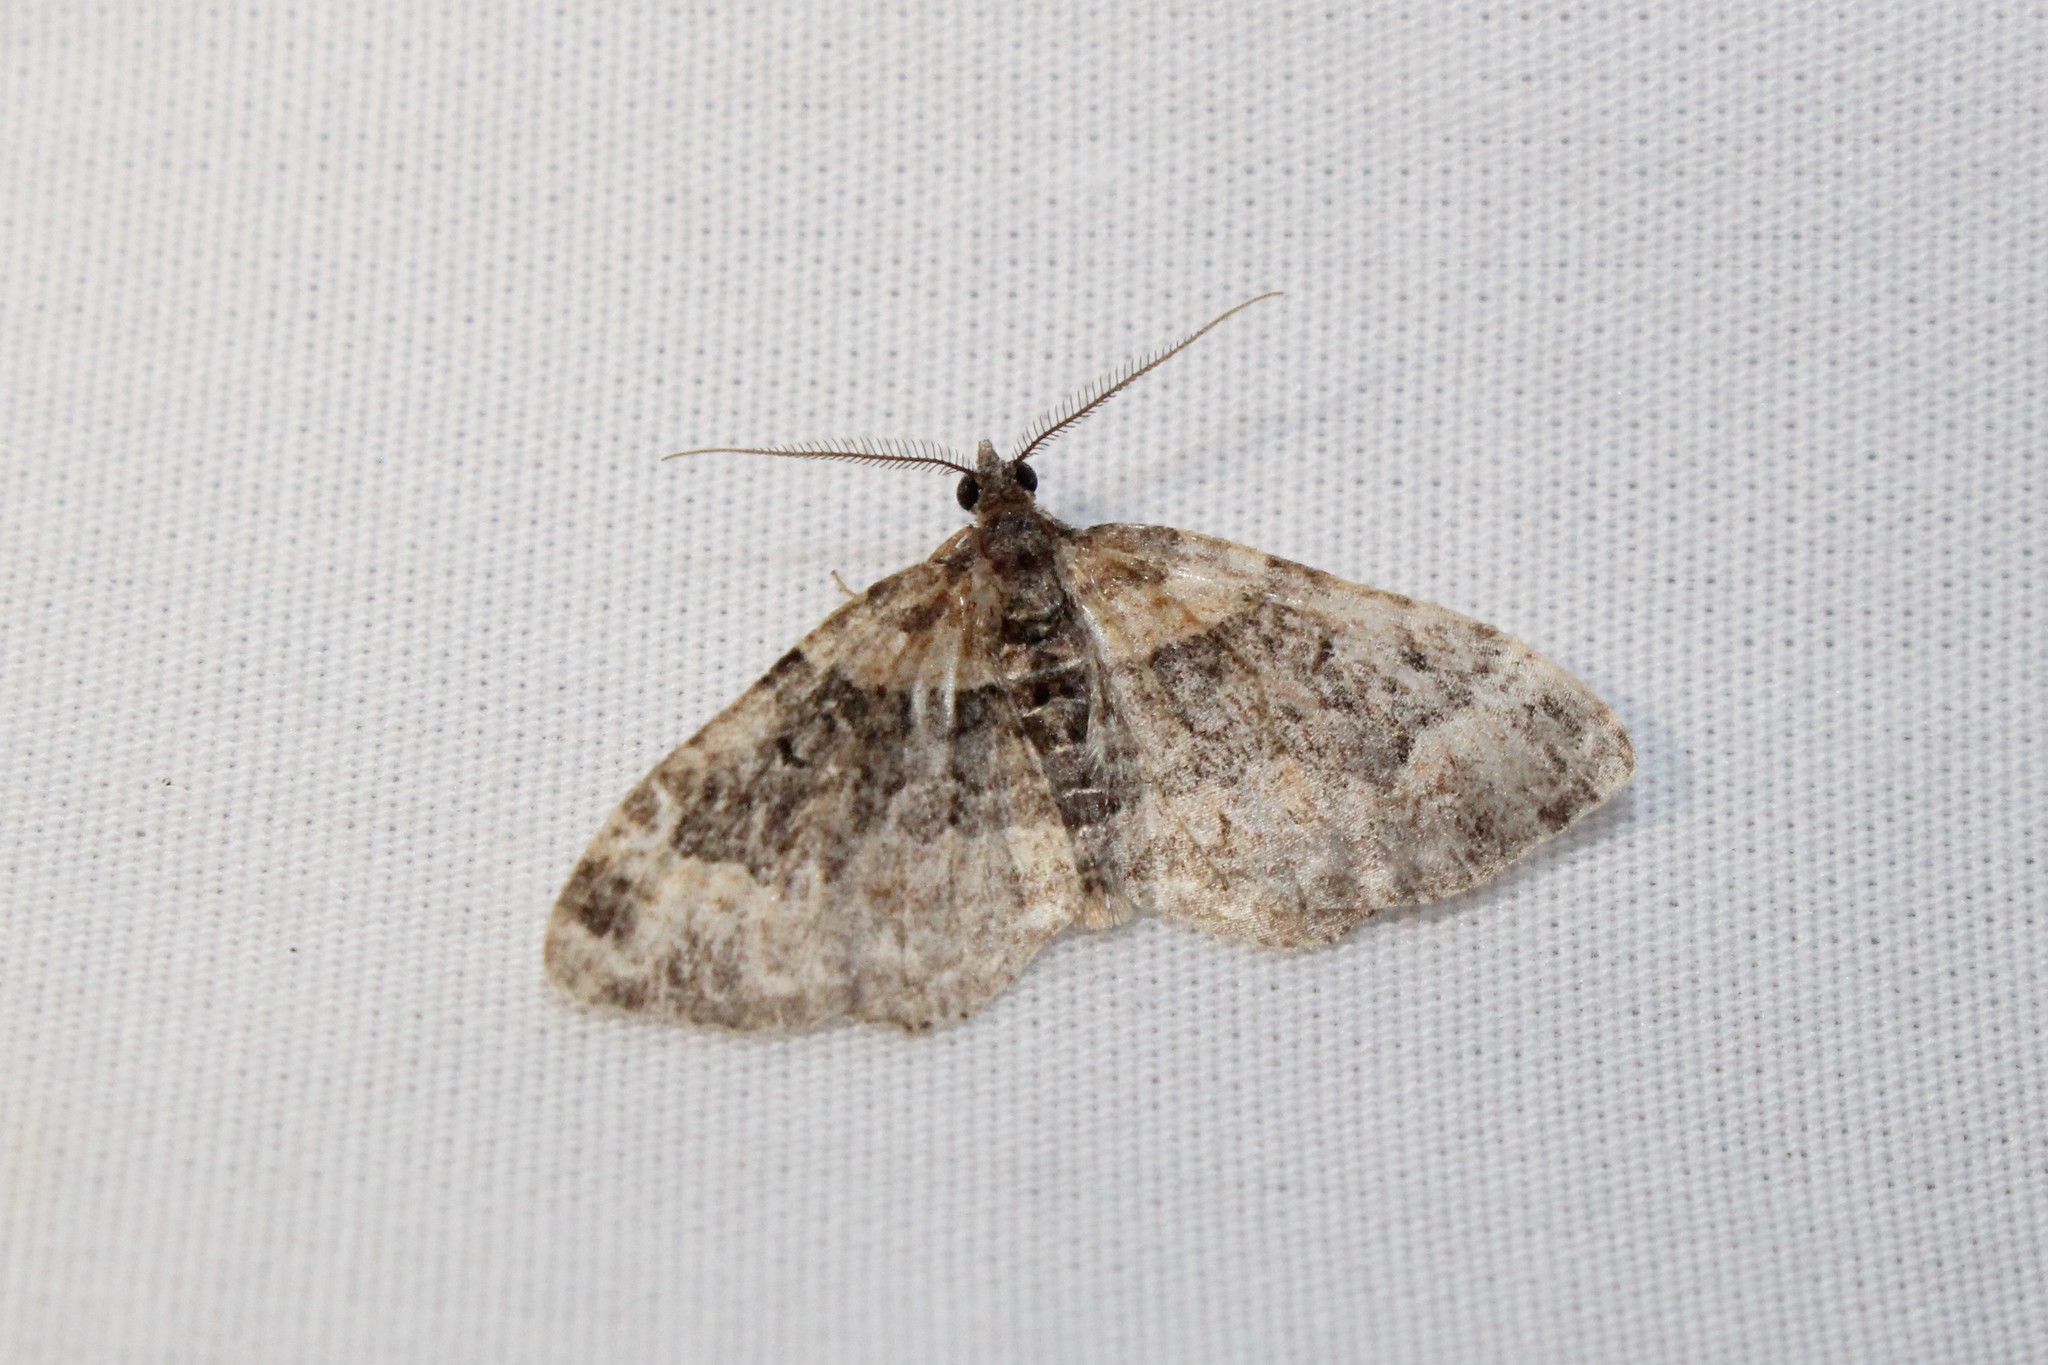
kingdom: Animalia
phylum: Arthropoda
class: Insecta
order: Lepidoptera
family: Geometridae
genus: Xanthorhoe
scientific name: Xanthorhoe ferrugata
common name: Dark-barred twin-spot carpet
